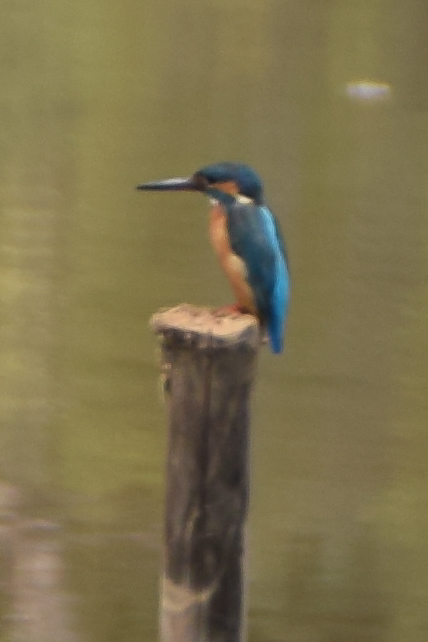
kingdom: Animalia
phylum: Chordata
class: Aves
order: Coraciiformes
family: Alcedinidae
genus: Alcedo
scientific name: Alcedo atthis
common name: Common kingfisher
